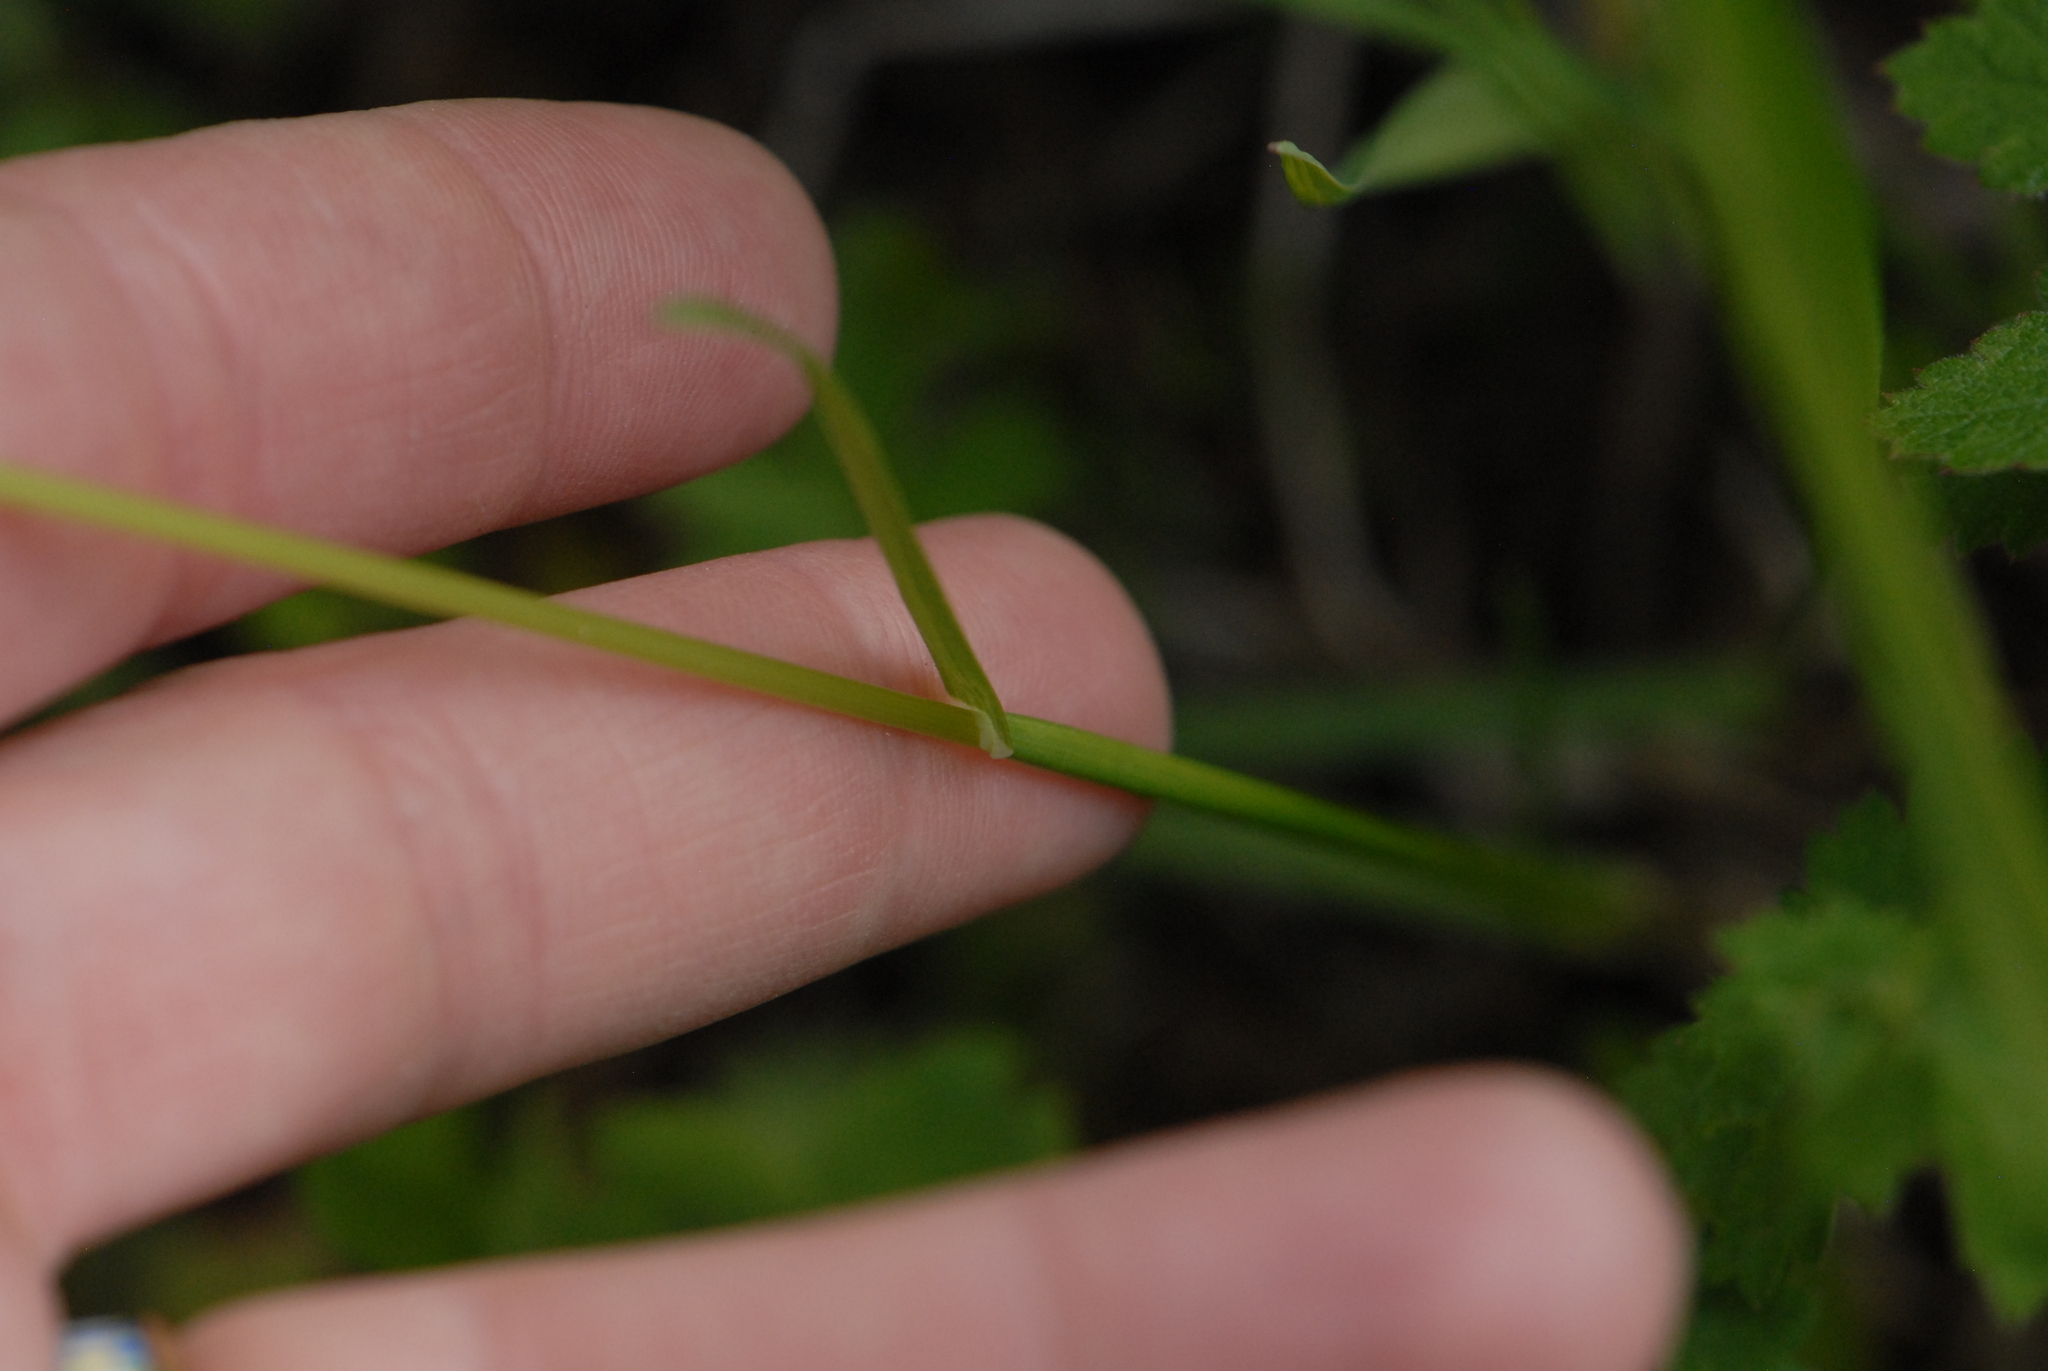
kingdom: Plantae
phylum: Tracheophyta
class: Liliopsida
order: Poales
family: Poaceae
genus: Poa
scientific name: Poa pratensis
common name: Kentucky bluegrass
